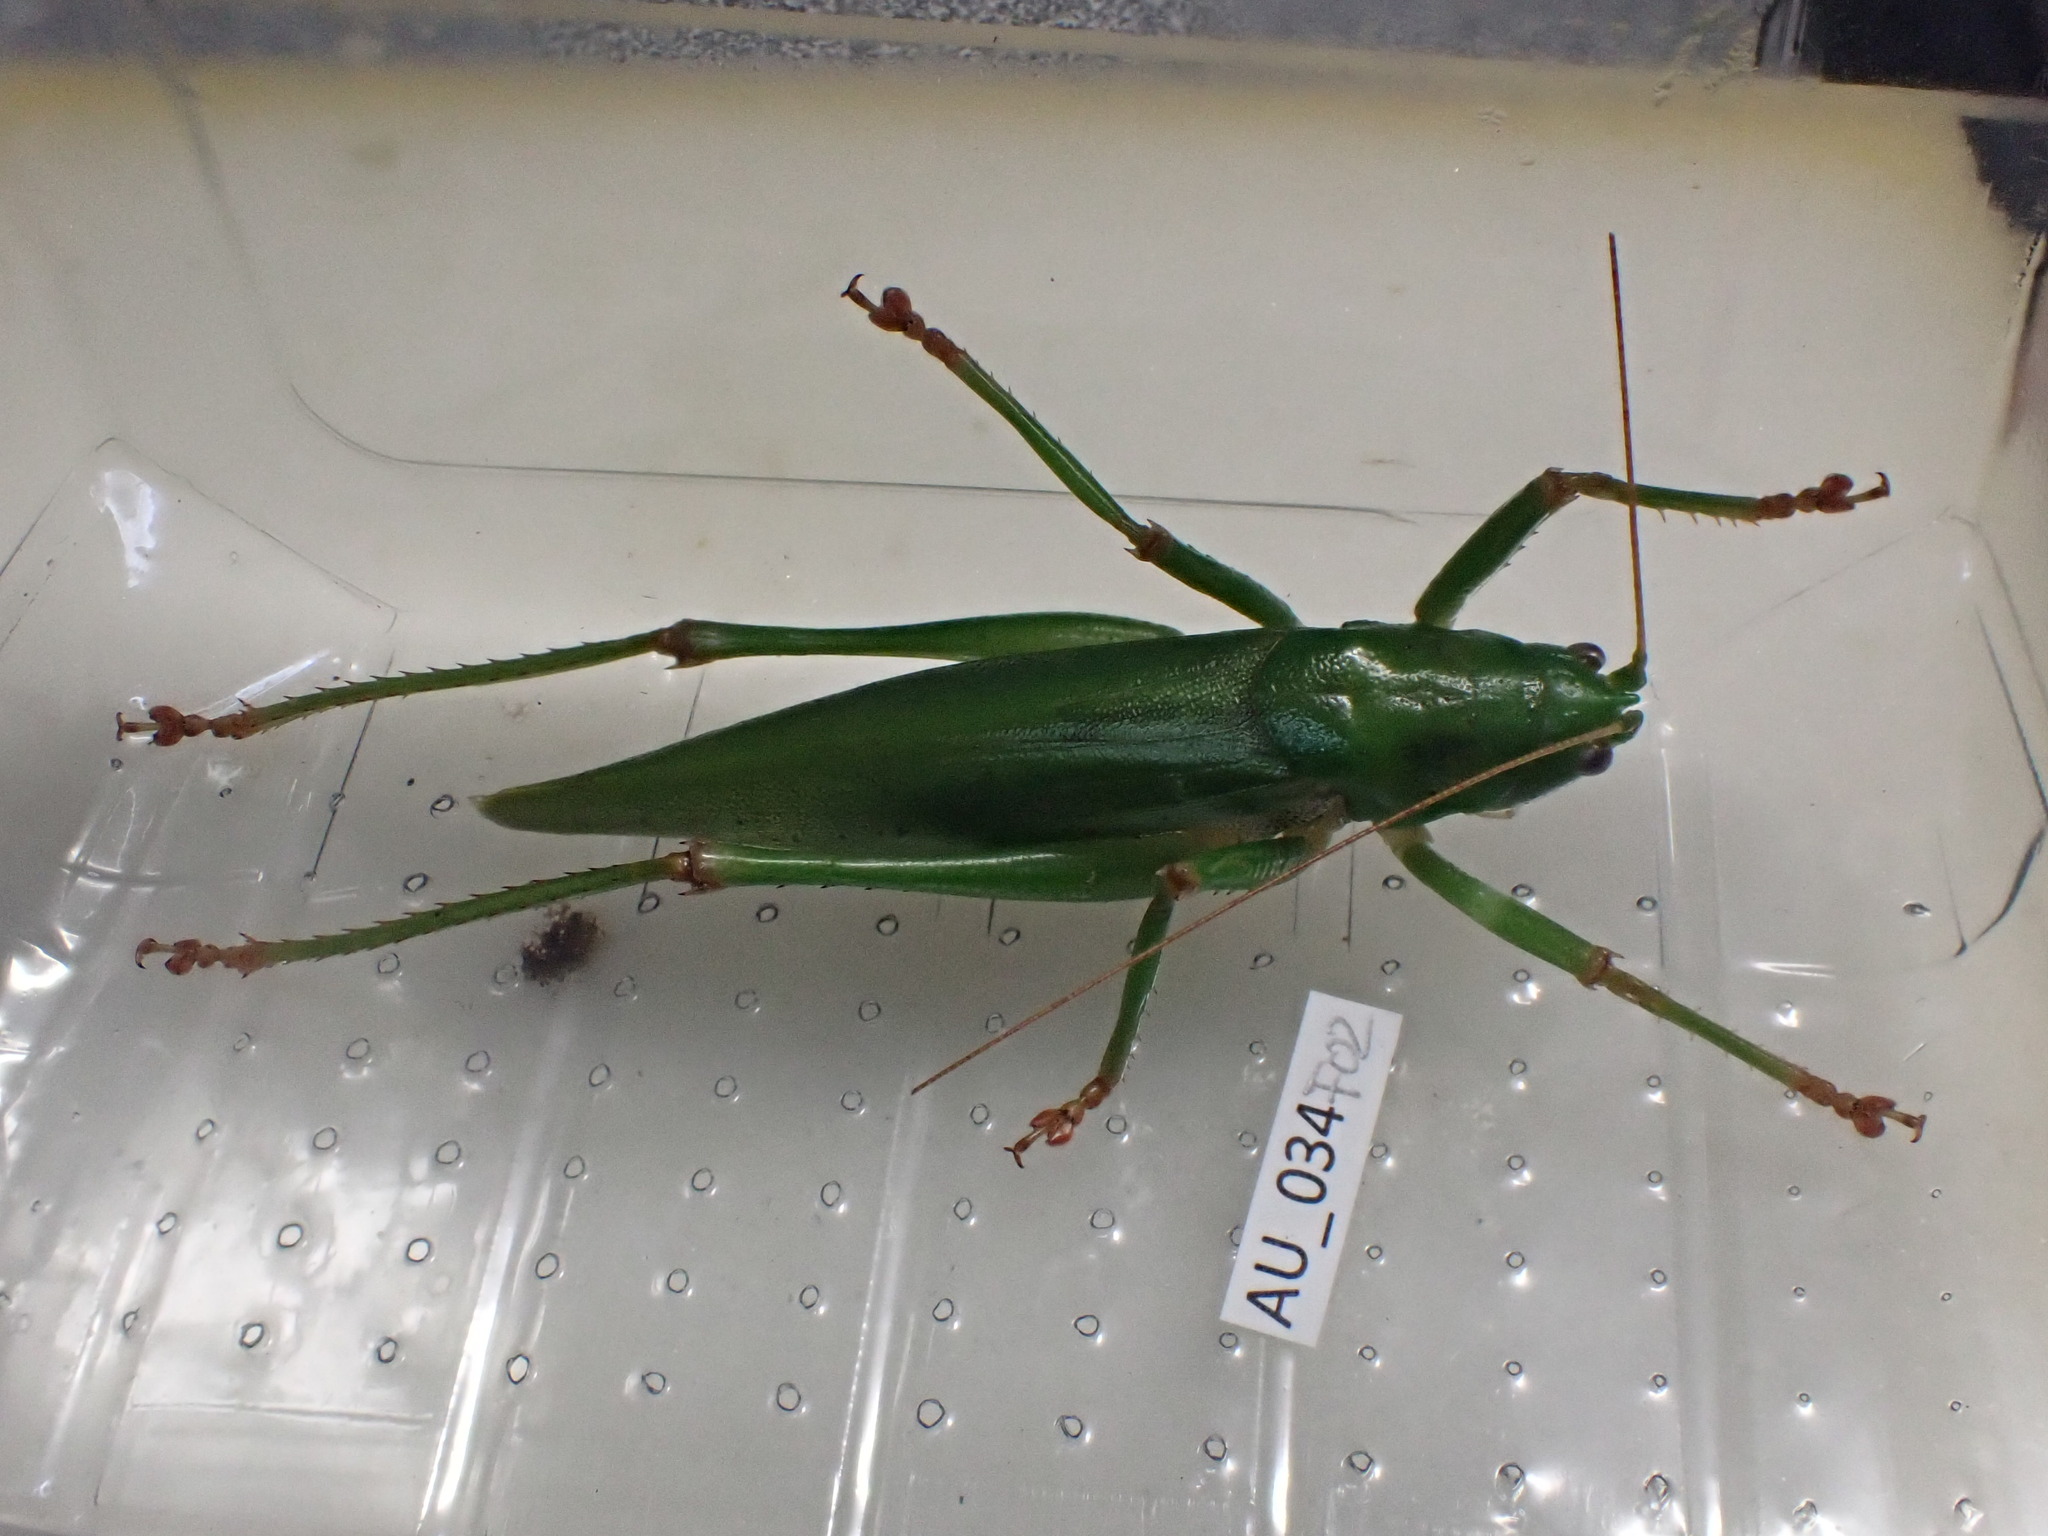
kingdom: Animalia
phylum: Arthropoda
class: Insecta
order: Orthoptera
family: Tettigoniidae
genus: Austrosalomona
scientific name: Austrosalomona destructor
